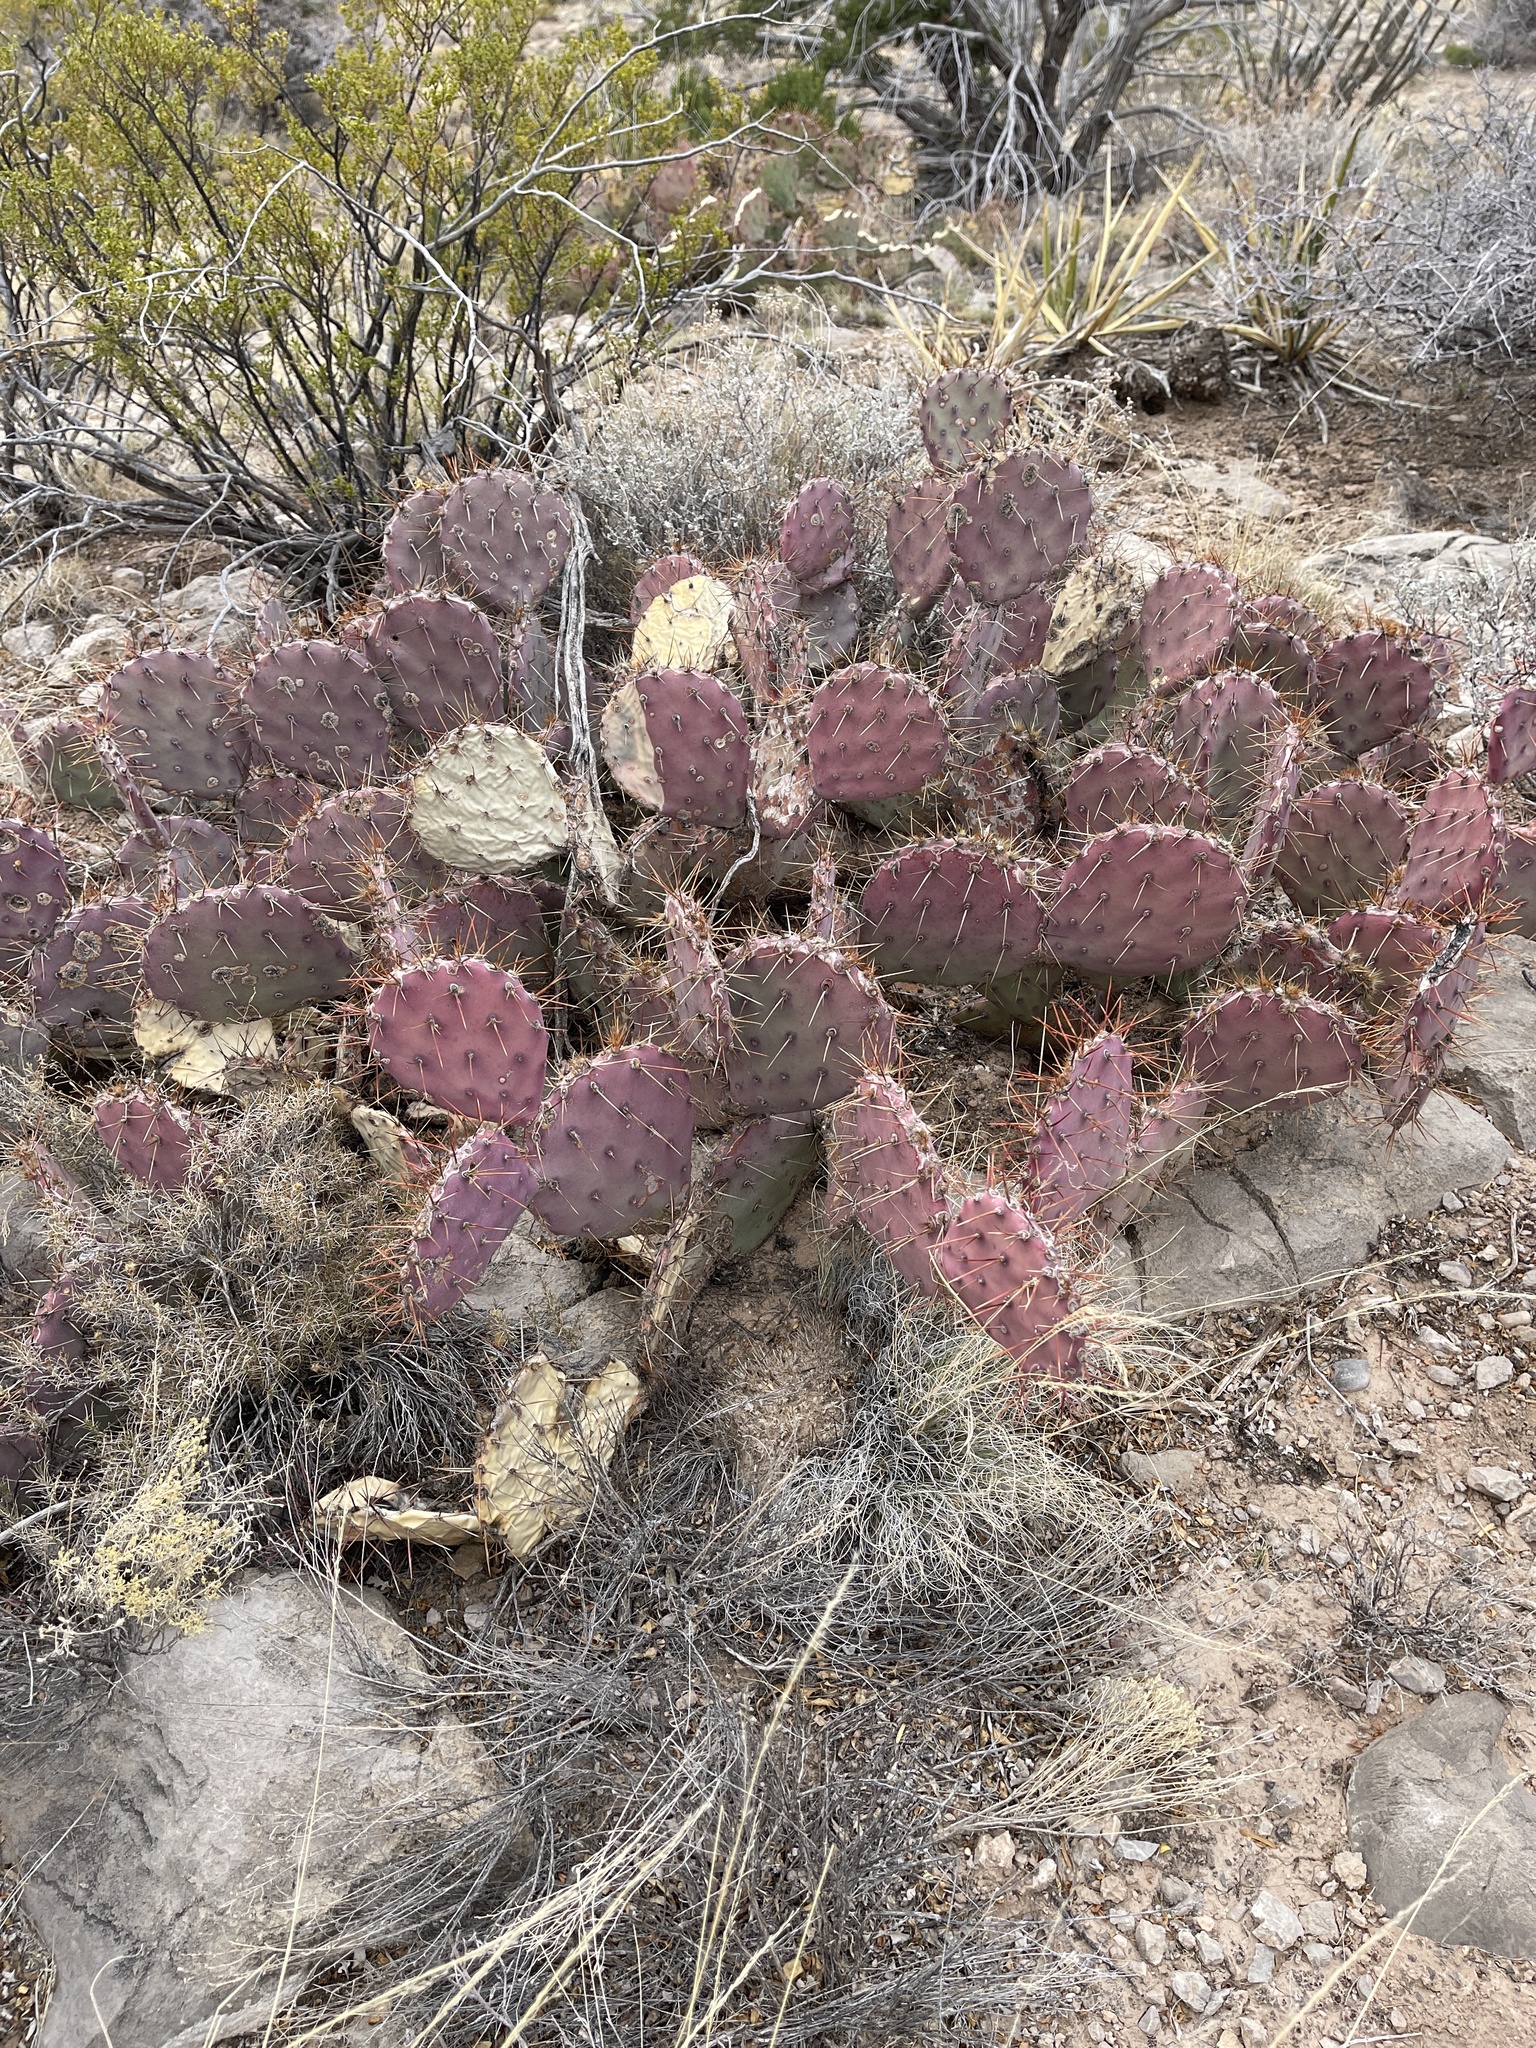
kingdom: Plantae
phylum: Tracheophyta
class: Magnoliopsida
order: Caryophyllales
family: Cactaceae
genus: Opuntia
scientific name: Opuntia macrocentra
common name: Purple prickly-pear
